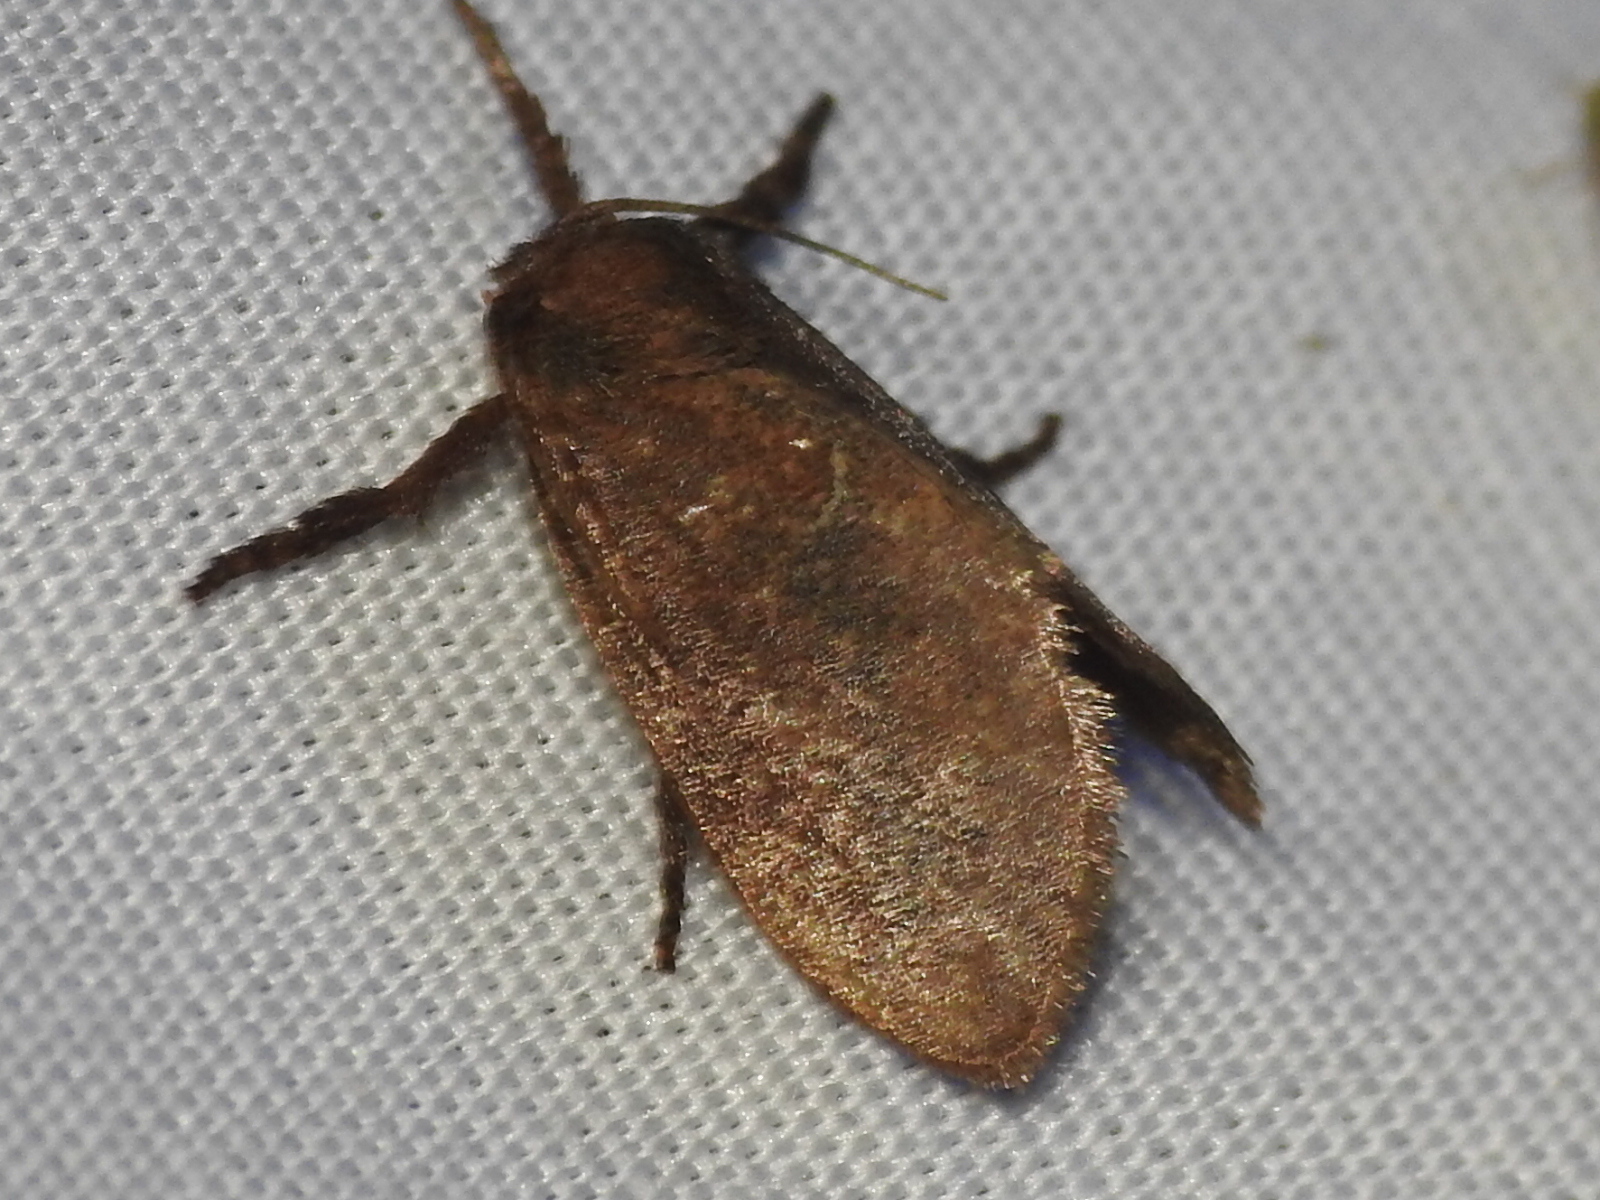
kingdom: Animalia
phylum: Arthropoda
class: Insecta
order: Lepidoptera
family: Limacodidae
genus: Adoneta
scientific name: Adoneta gemina
